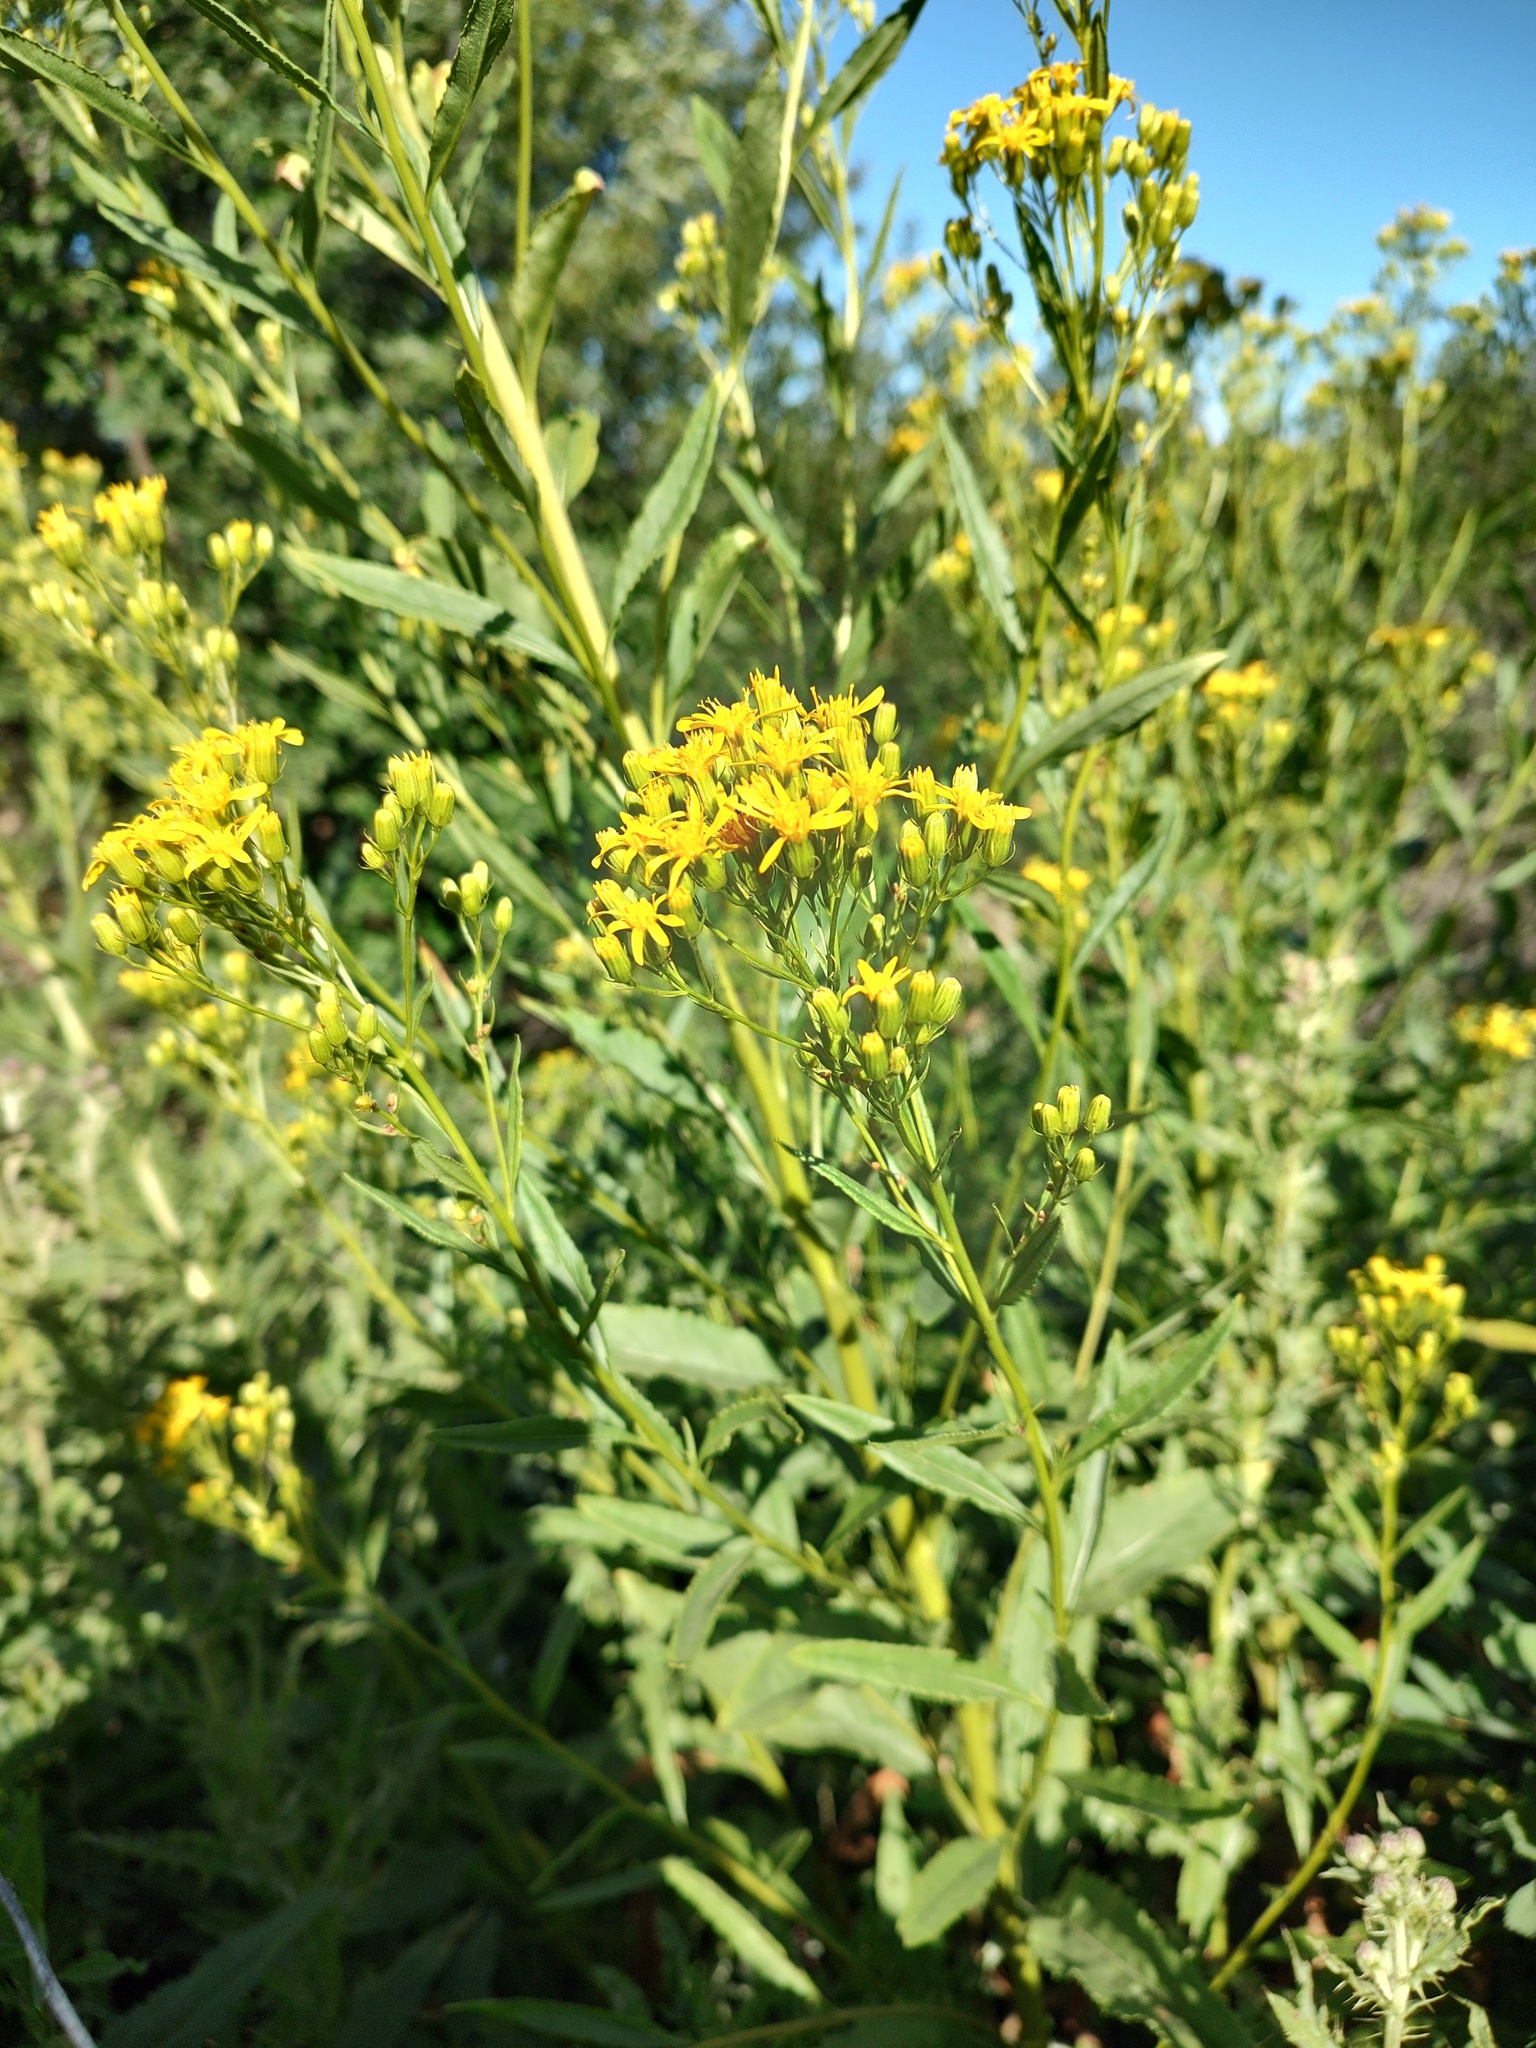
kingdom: Plantae
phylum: Tracheophyta
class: Magnoliopsida
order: Asterales
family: Asteraceae
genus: Senecio
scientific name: Senecio serra
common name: Tall ragwort
